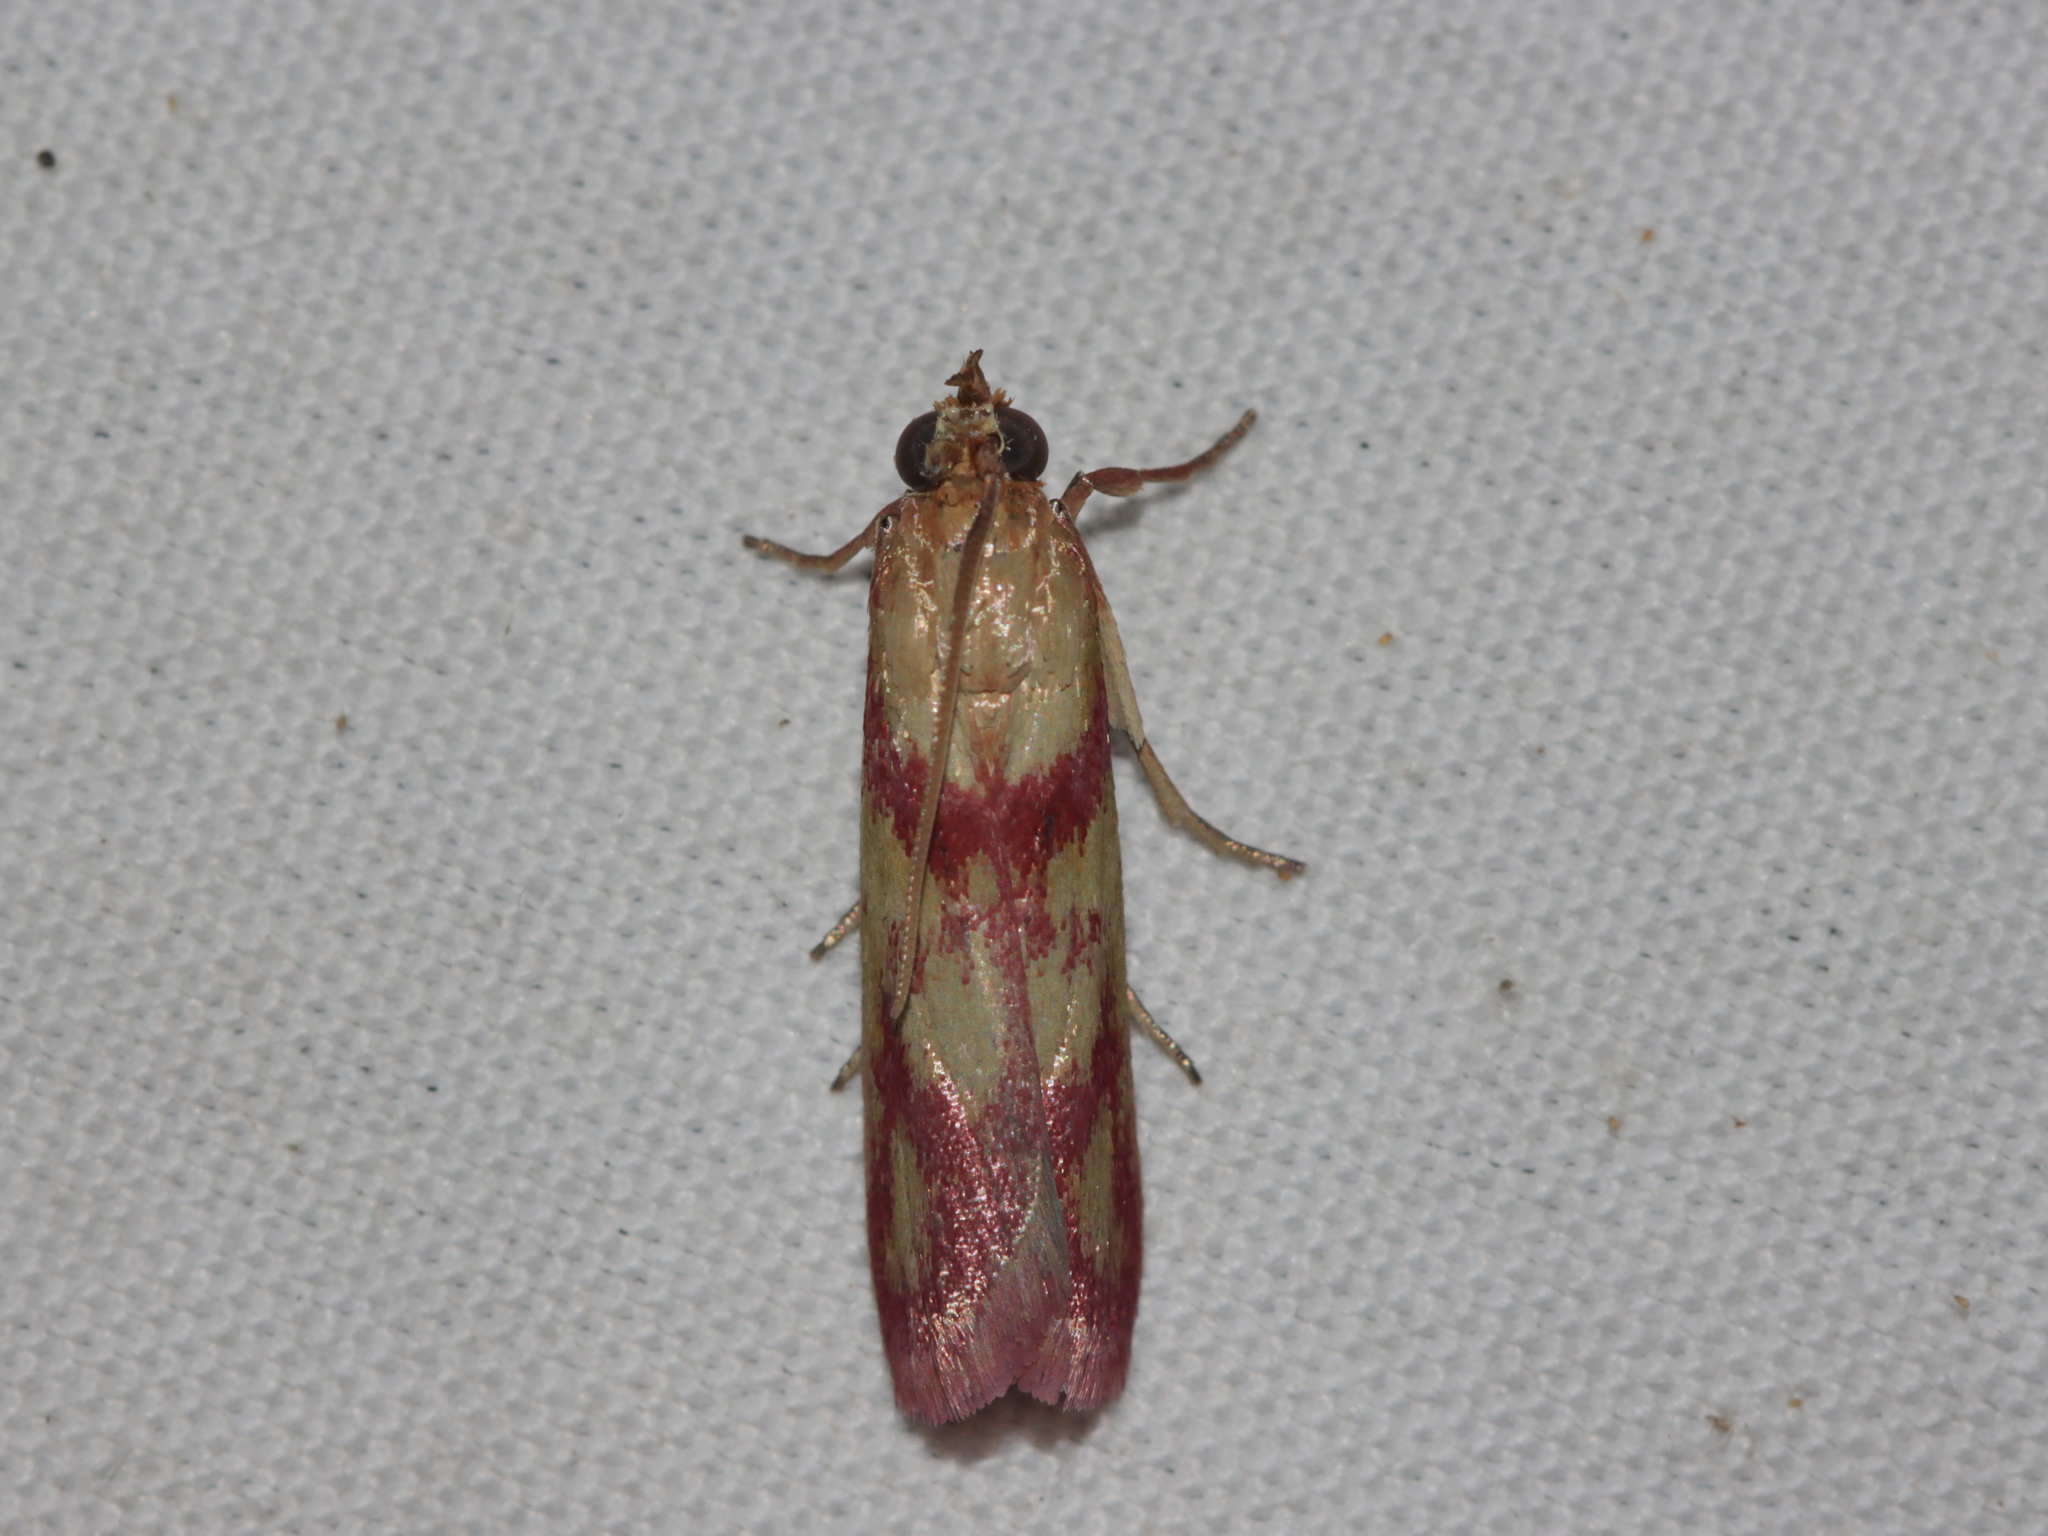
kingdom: Animalia
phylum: Arthropoda
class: Insecta
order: Lepidoptera
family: Pyralidae
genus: Canthelea
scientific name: Canthelea oegnusalis
